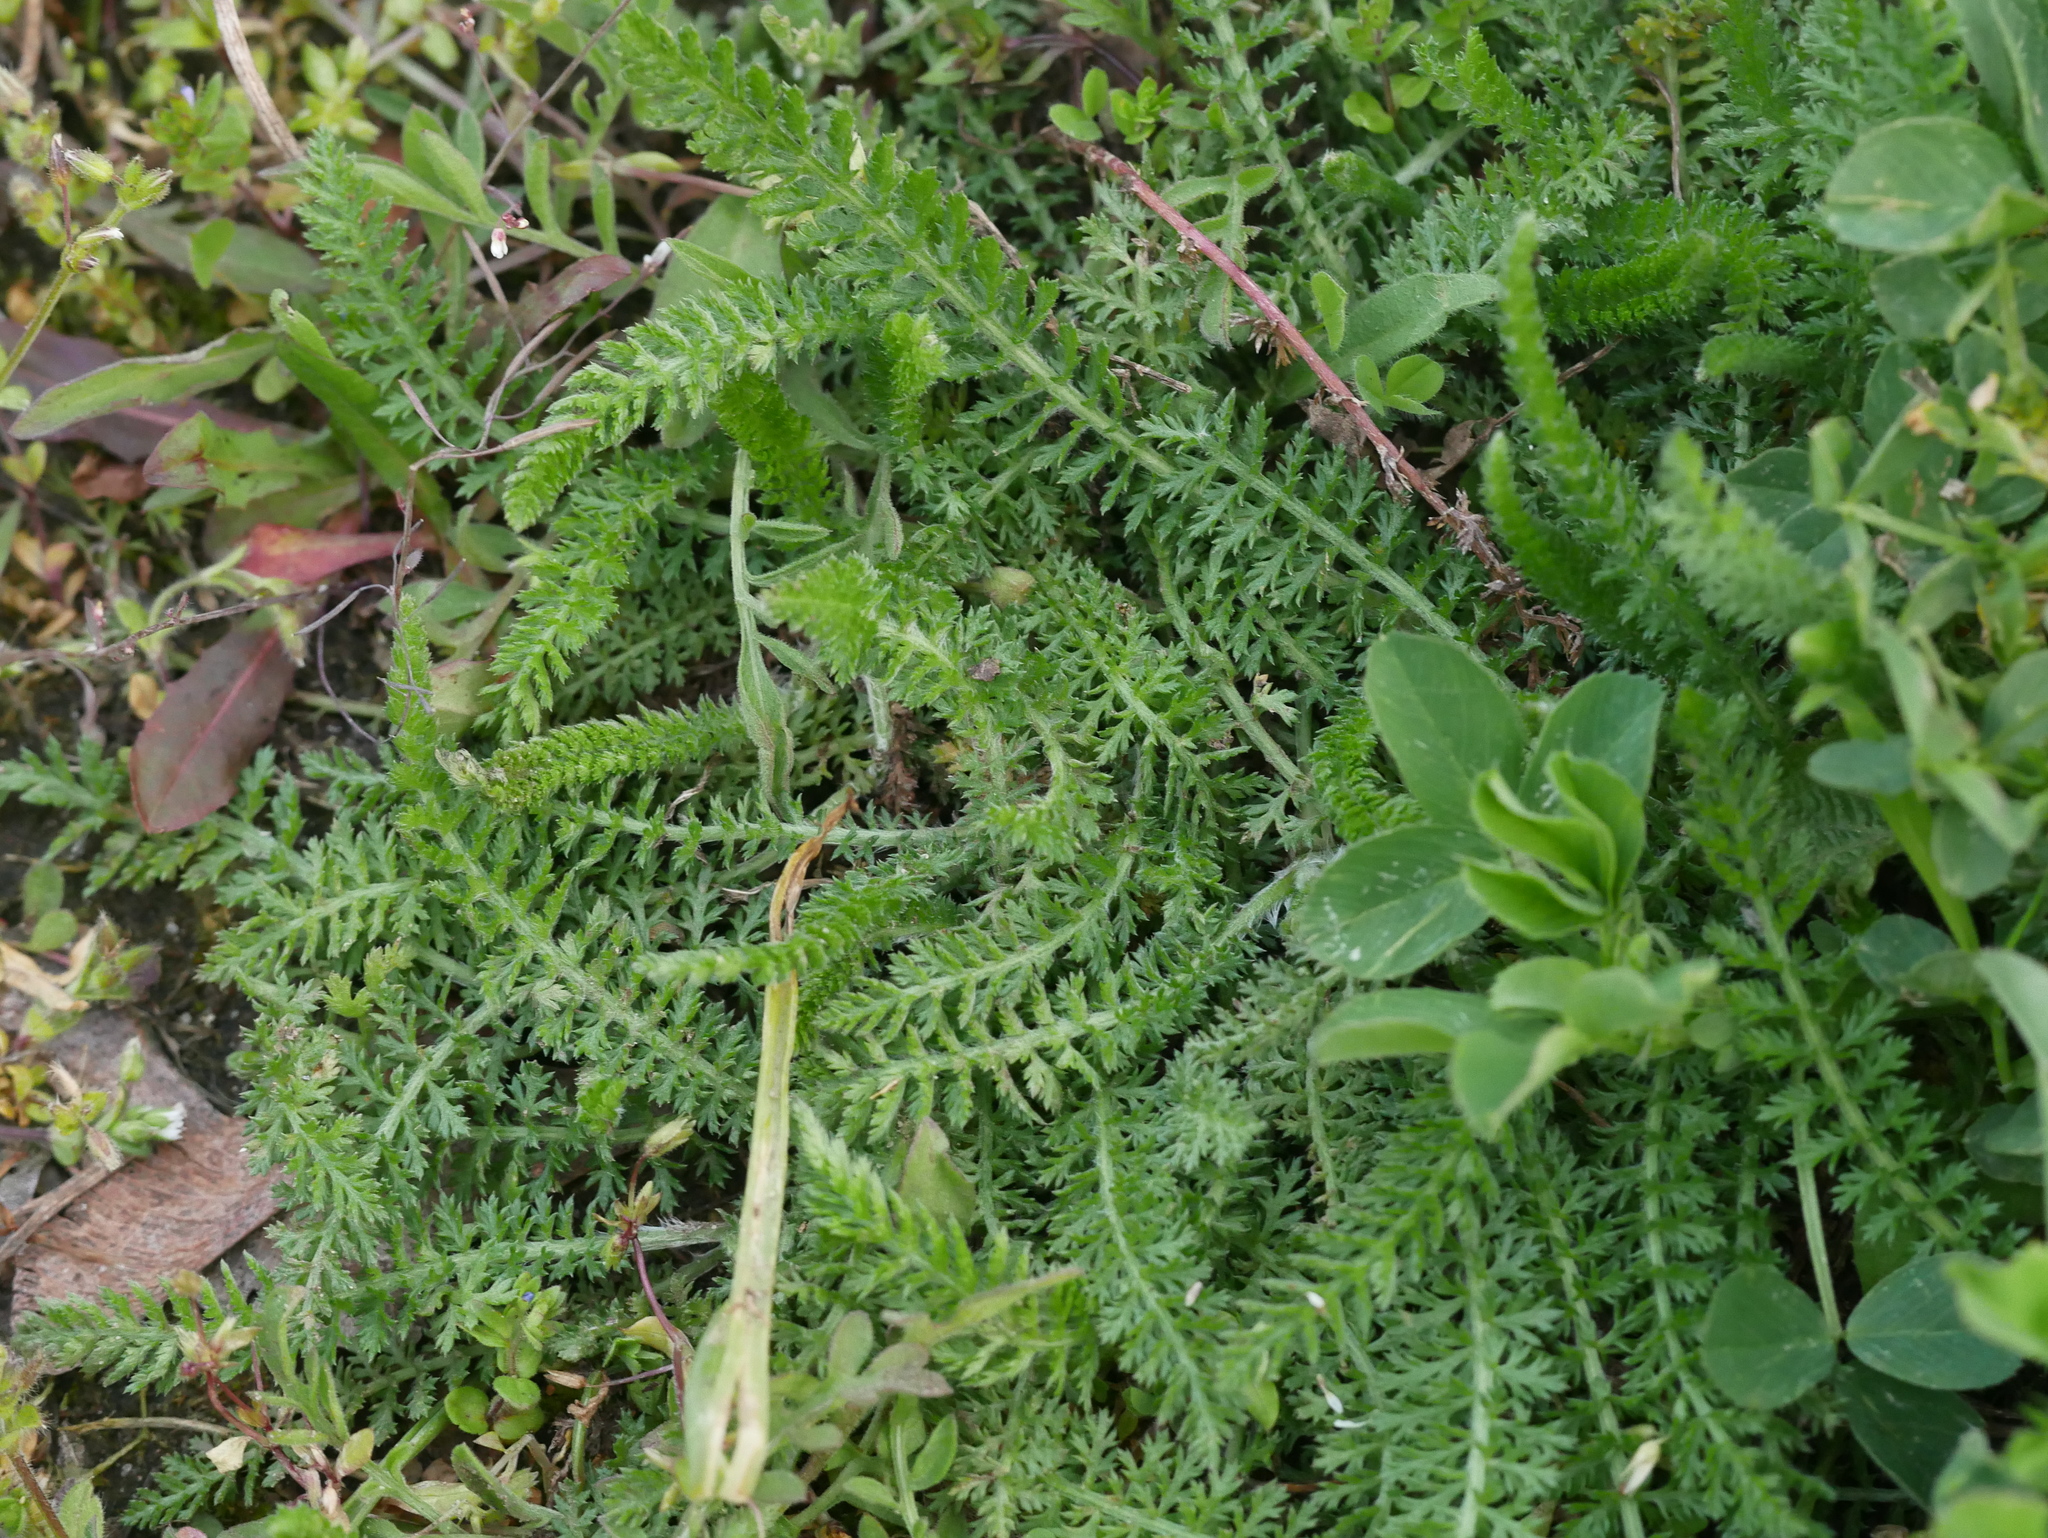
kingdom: Plantae
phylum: Tracheophyta
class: Magnoliopsida
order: Asterales
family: Asteraceae
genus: Achillea
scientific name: Achillea millefolium
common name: Yarrow
